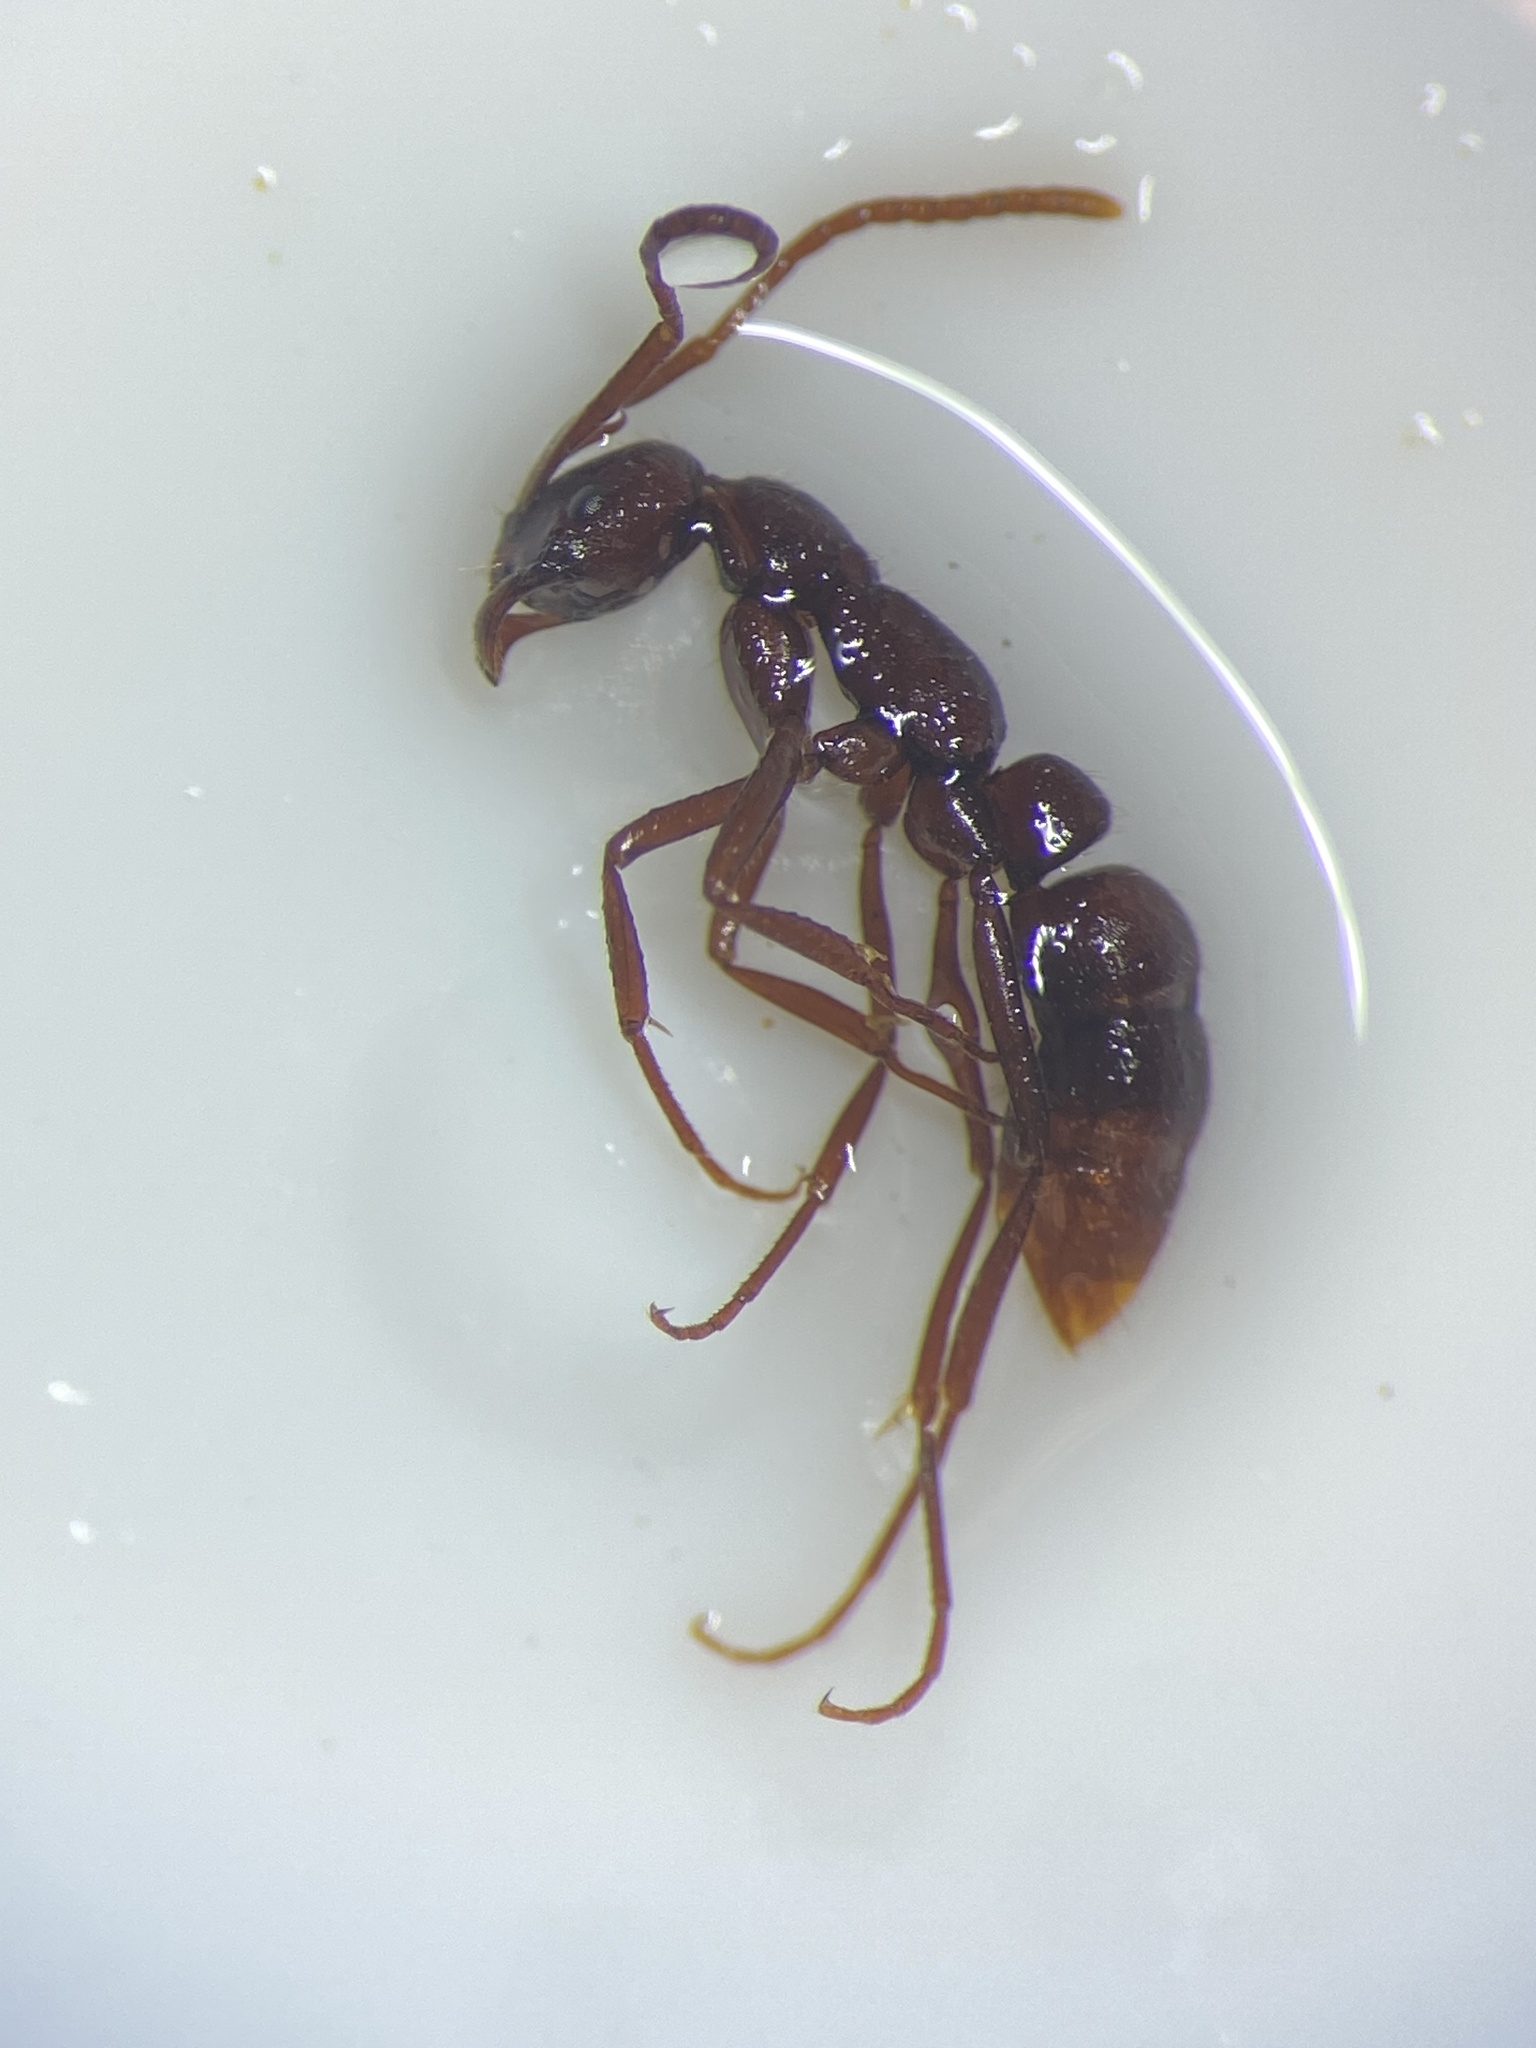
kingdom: Animalia
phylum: Arthropoda
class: Insecta
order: Hymenoptera
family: Formicidae
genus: Leptogenys
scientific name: Leptogenys elongata
